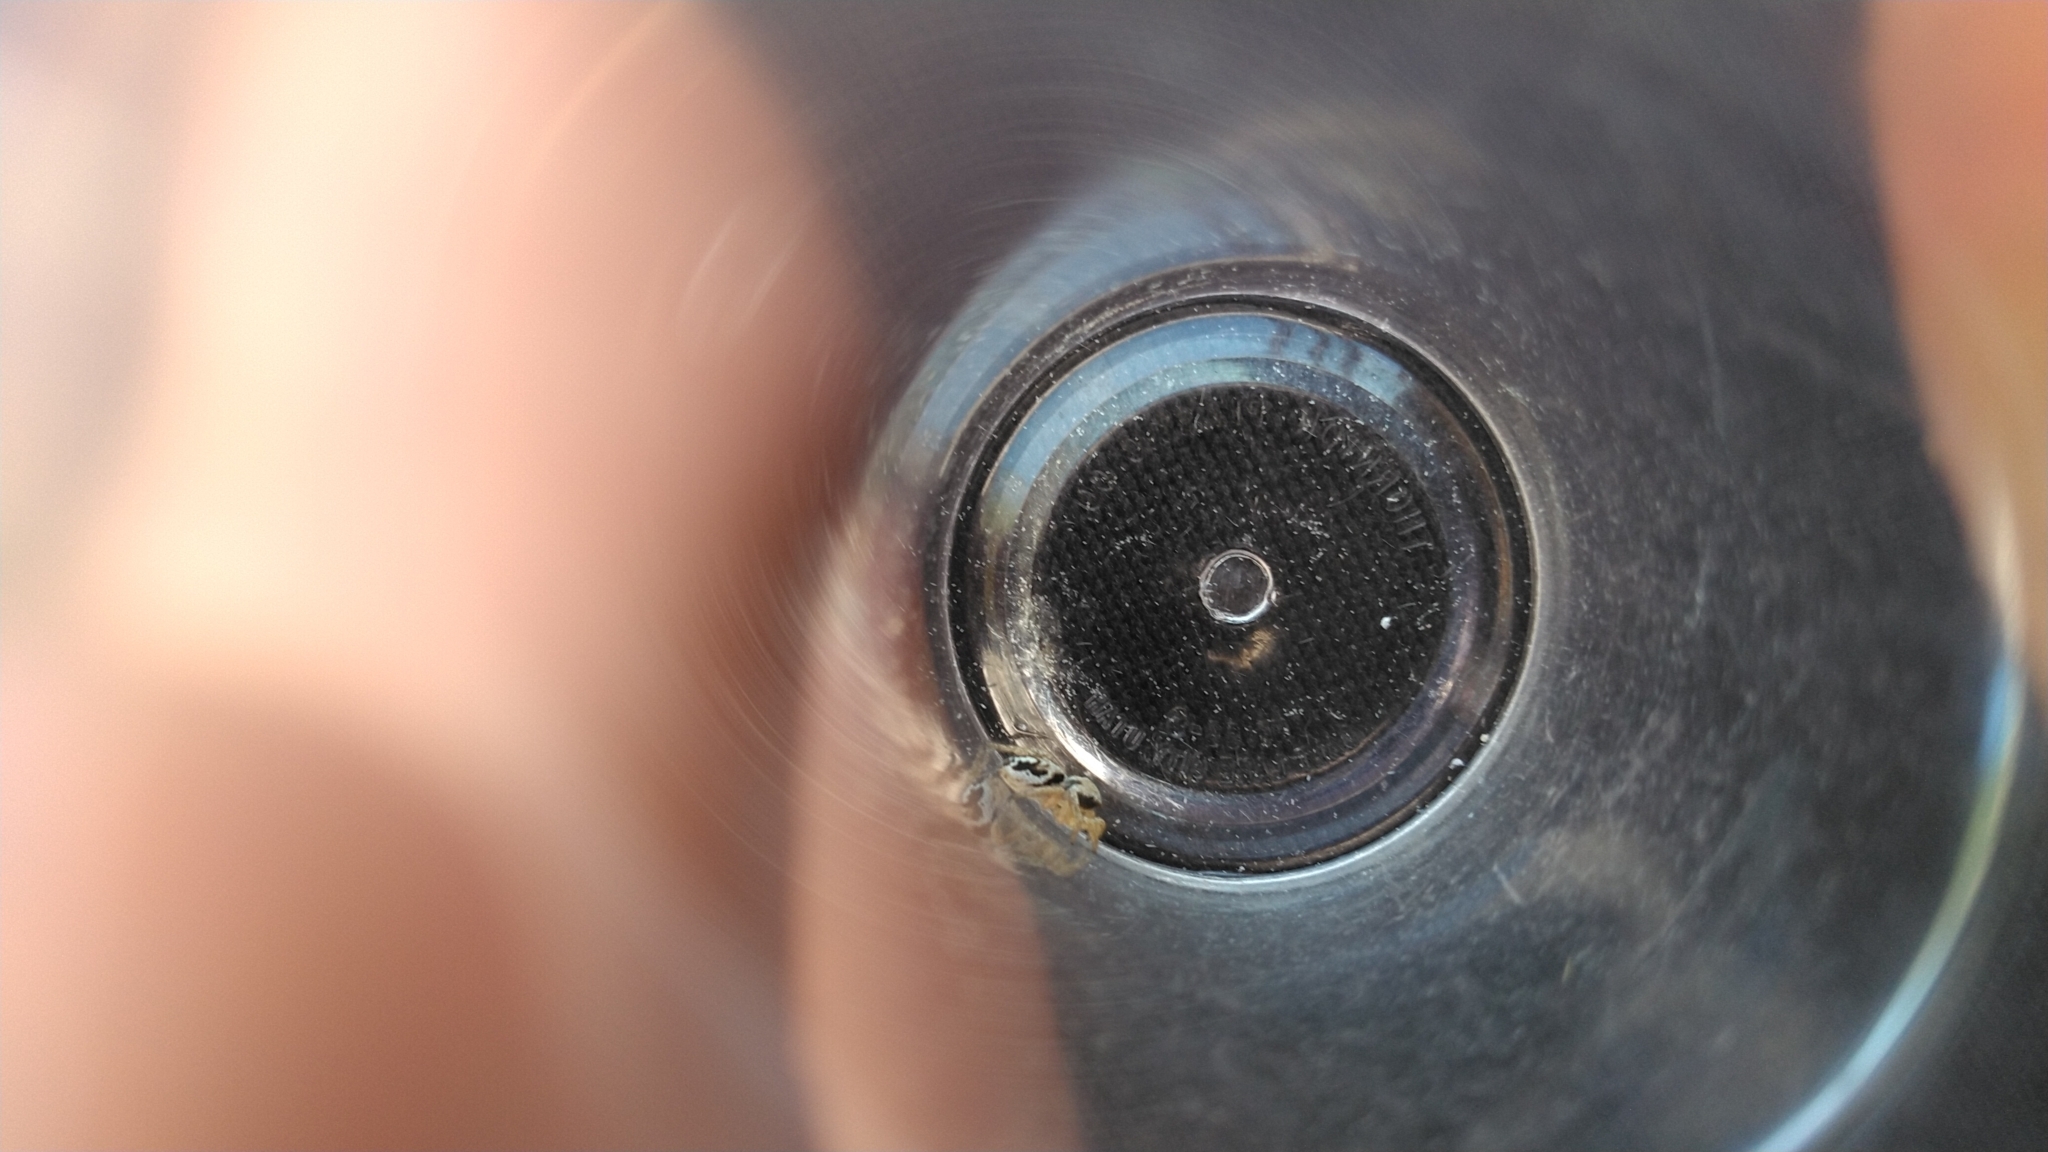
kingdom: Animalia
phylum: Arthropoda
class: Arachnida
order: Araneae
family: Salticidae
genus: Habronattus
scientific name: Habronattus festus
